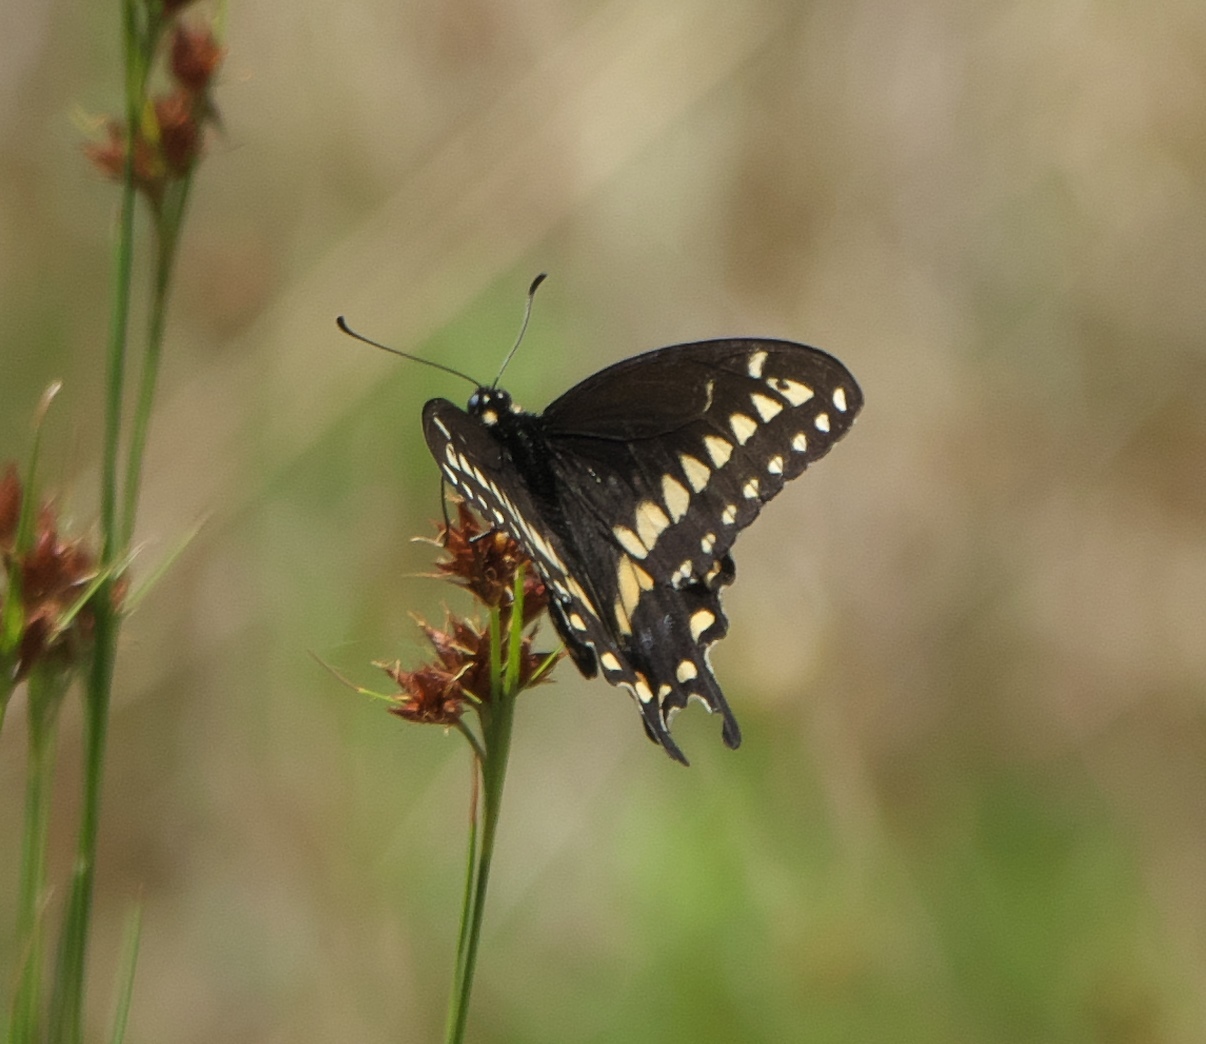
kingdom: Animalia
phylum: Arthropoda
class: Insecta
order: Lepidoptera
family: Papilionidae
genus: Papilio
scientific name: Papilio polyxenes
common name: Black swallowtail
